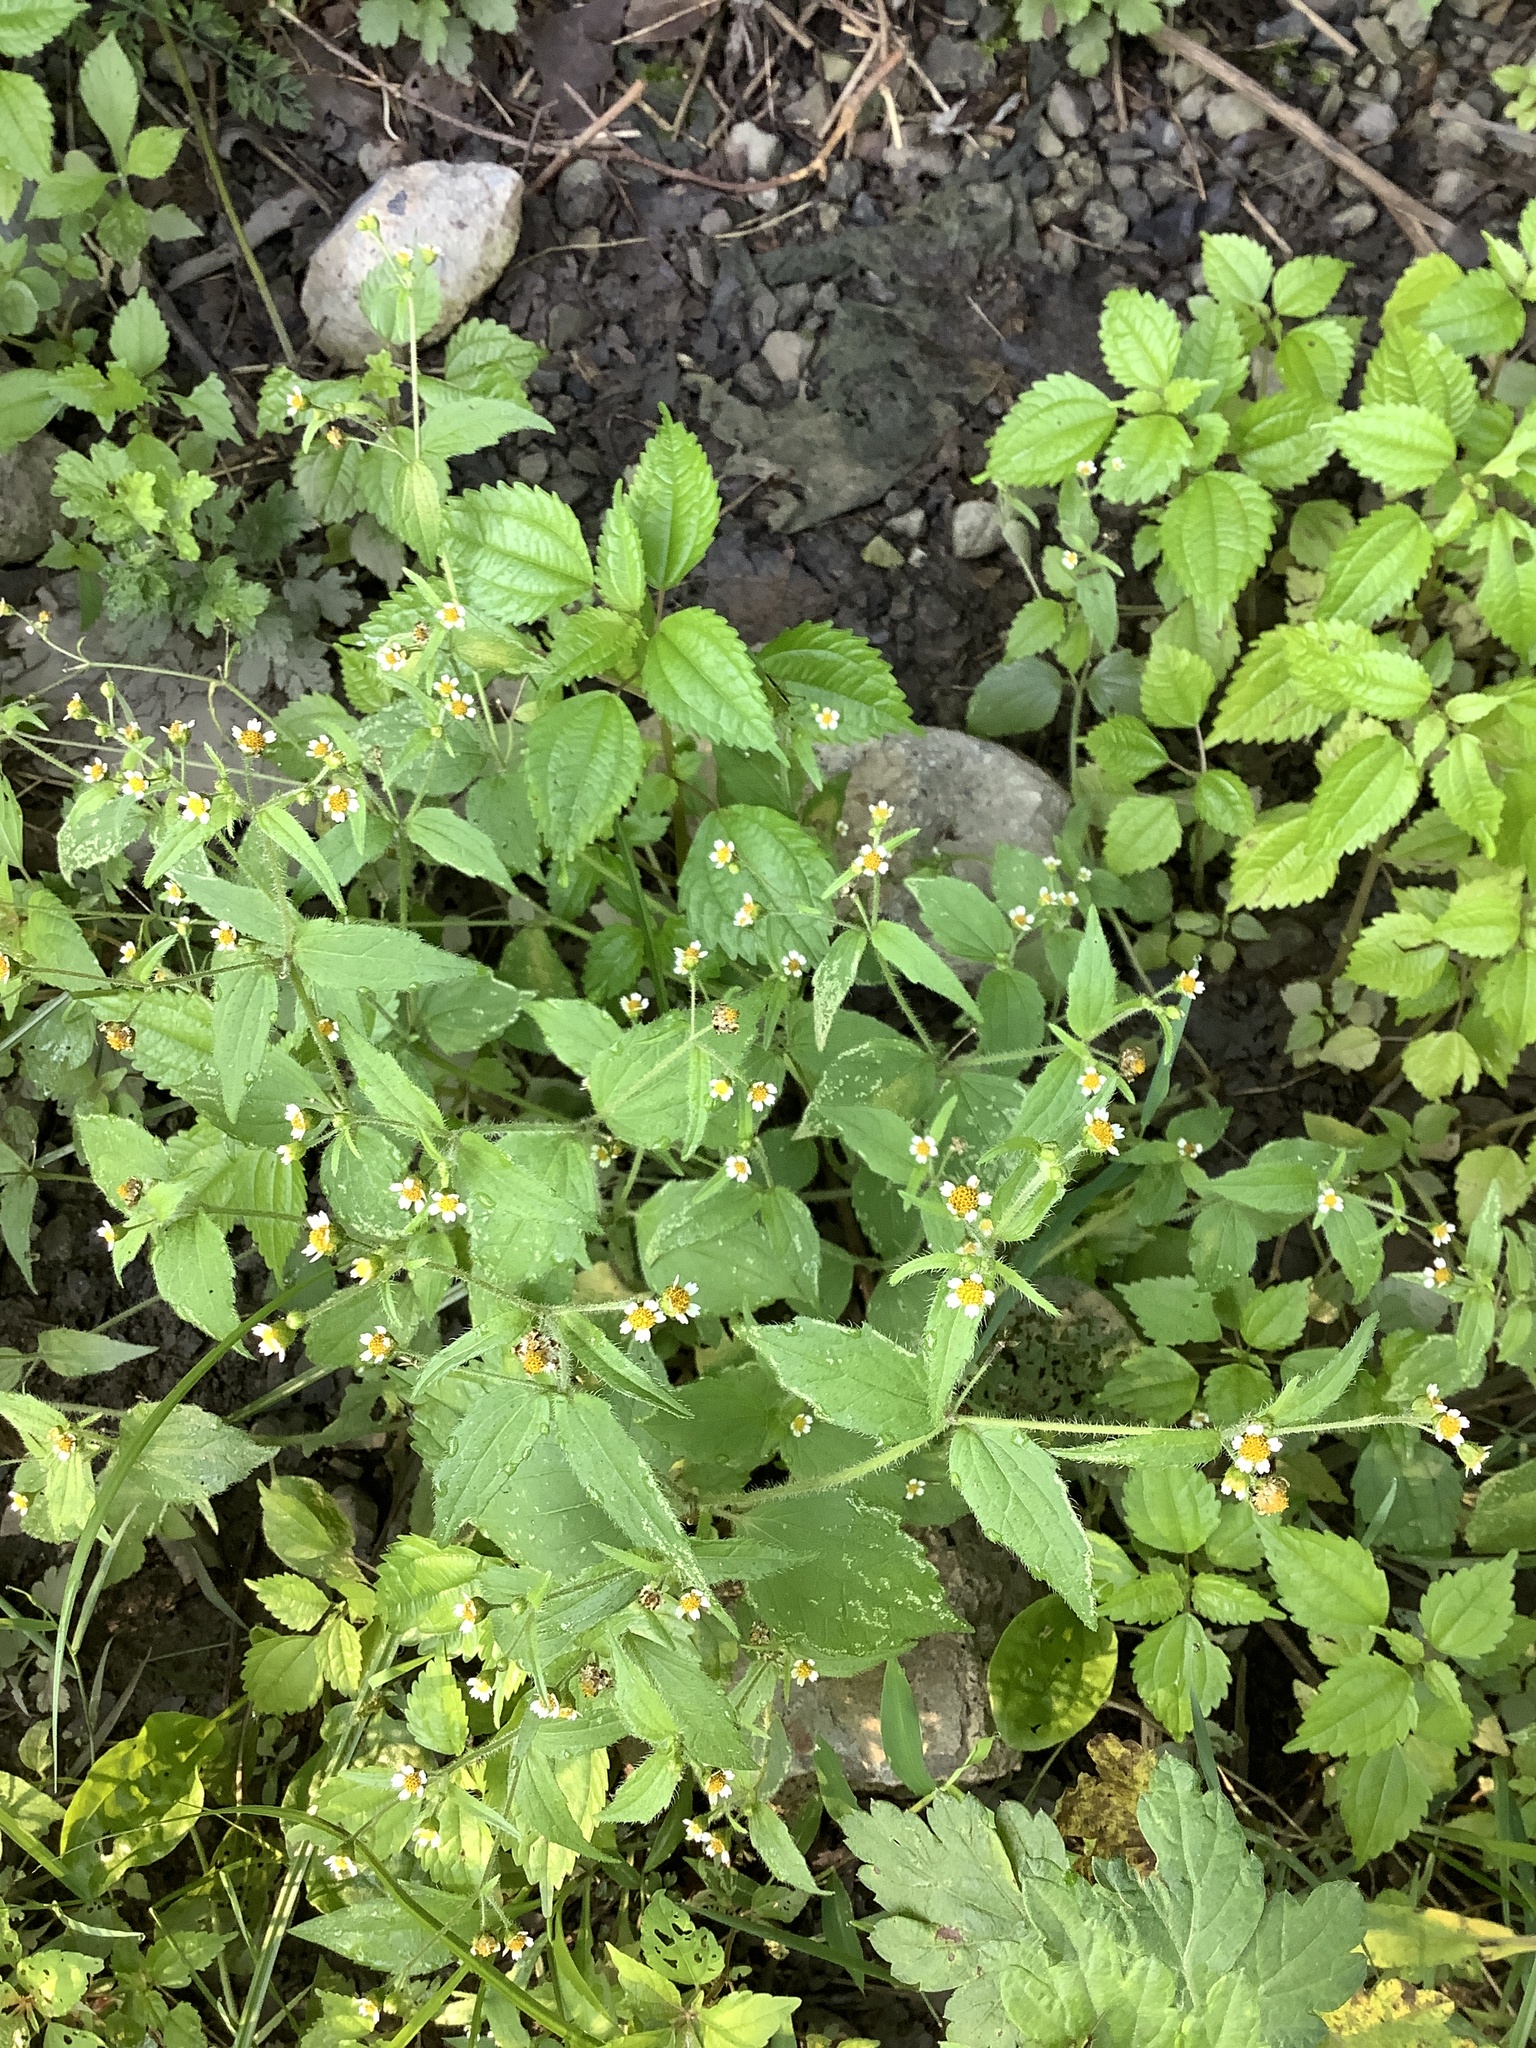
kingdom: Plantae
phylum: Tracheophyta
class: Magnoliopsida
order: Asterales
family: Asteraceae
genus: Galinsoga
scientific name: Galinsoga quadriradiata
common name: Shaggy soldier
